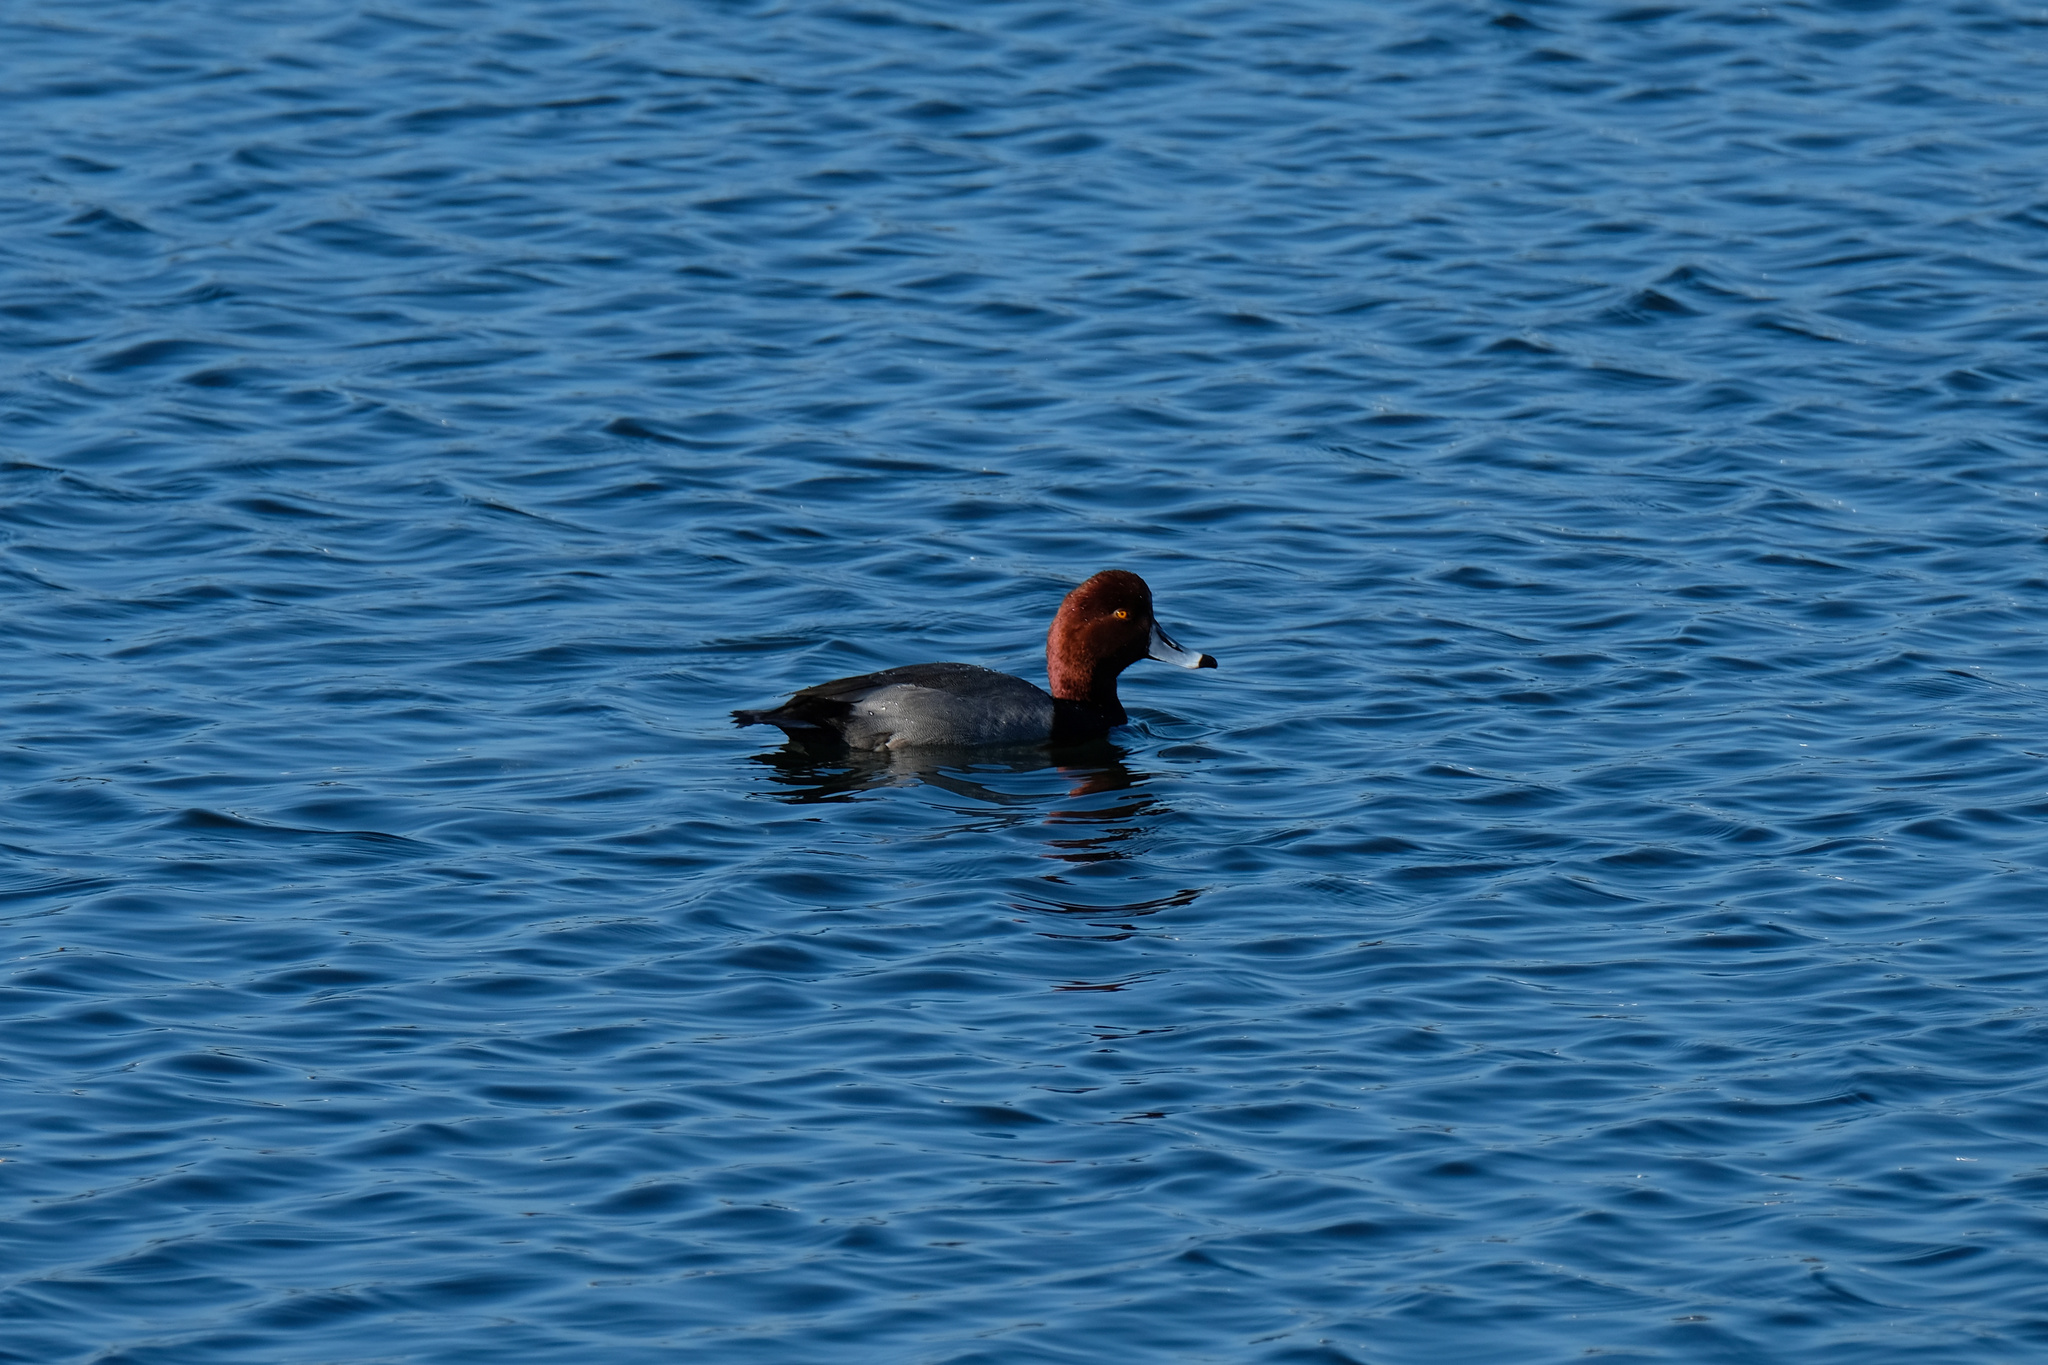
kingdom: Animalia
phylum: Chordata
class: Aves
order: Anseriformes
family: Anatidae
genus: Aythya
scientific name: Aythya americana
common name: Redhead
